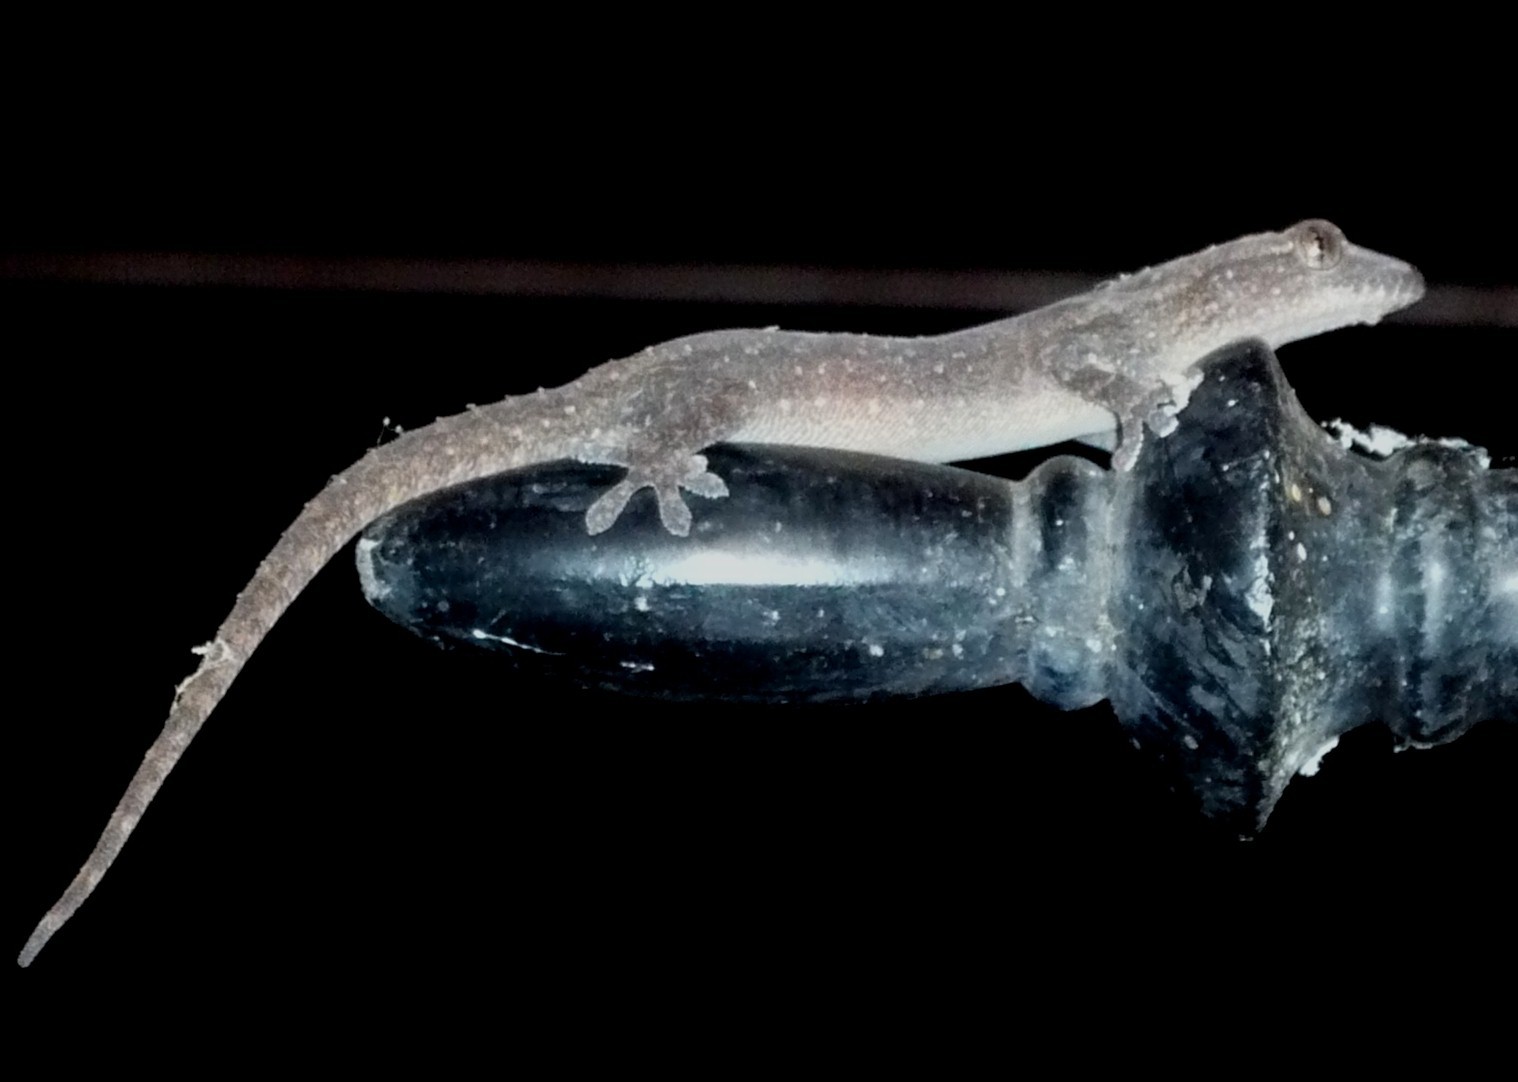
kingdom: Animalia
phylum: Chordata
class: Squamata
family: Gekkonidae
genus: Hemidactylus
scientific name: Hemidactylus frenatus
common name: Common house gecko
